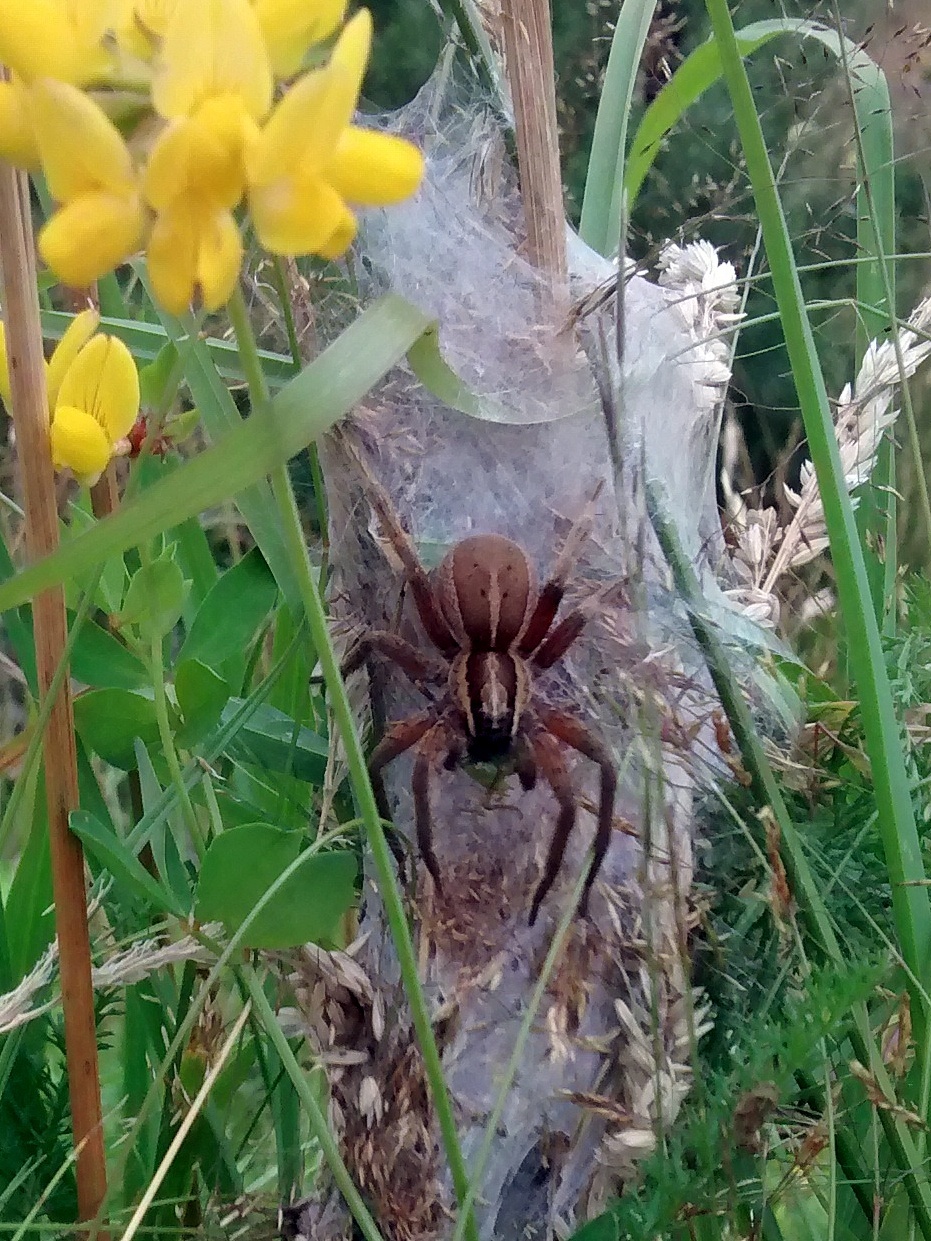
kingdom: Animalia
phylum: Arthropoda
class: Arachnida
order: Araneae
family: Pisauridae
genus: Dolomedes
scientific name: Dolomedes minor
